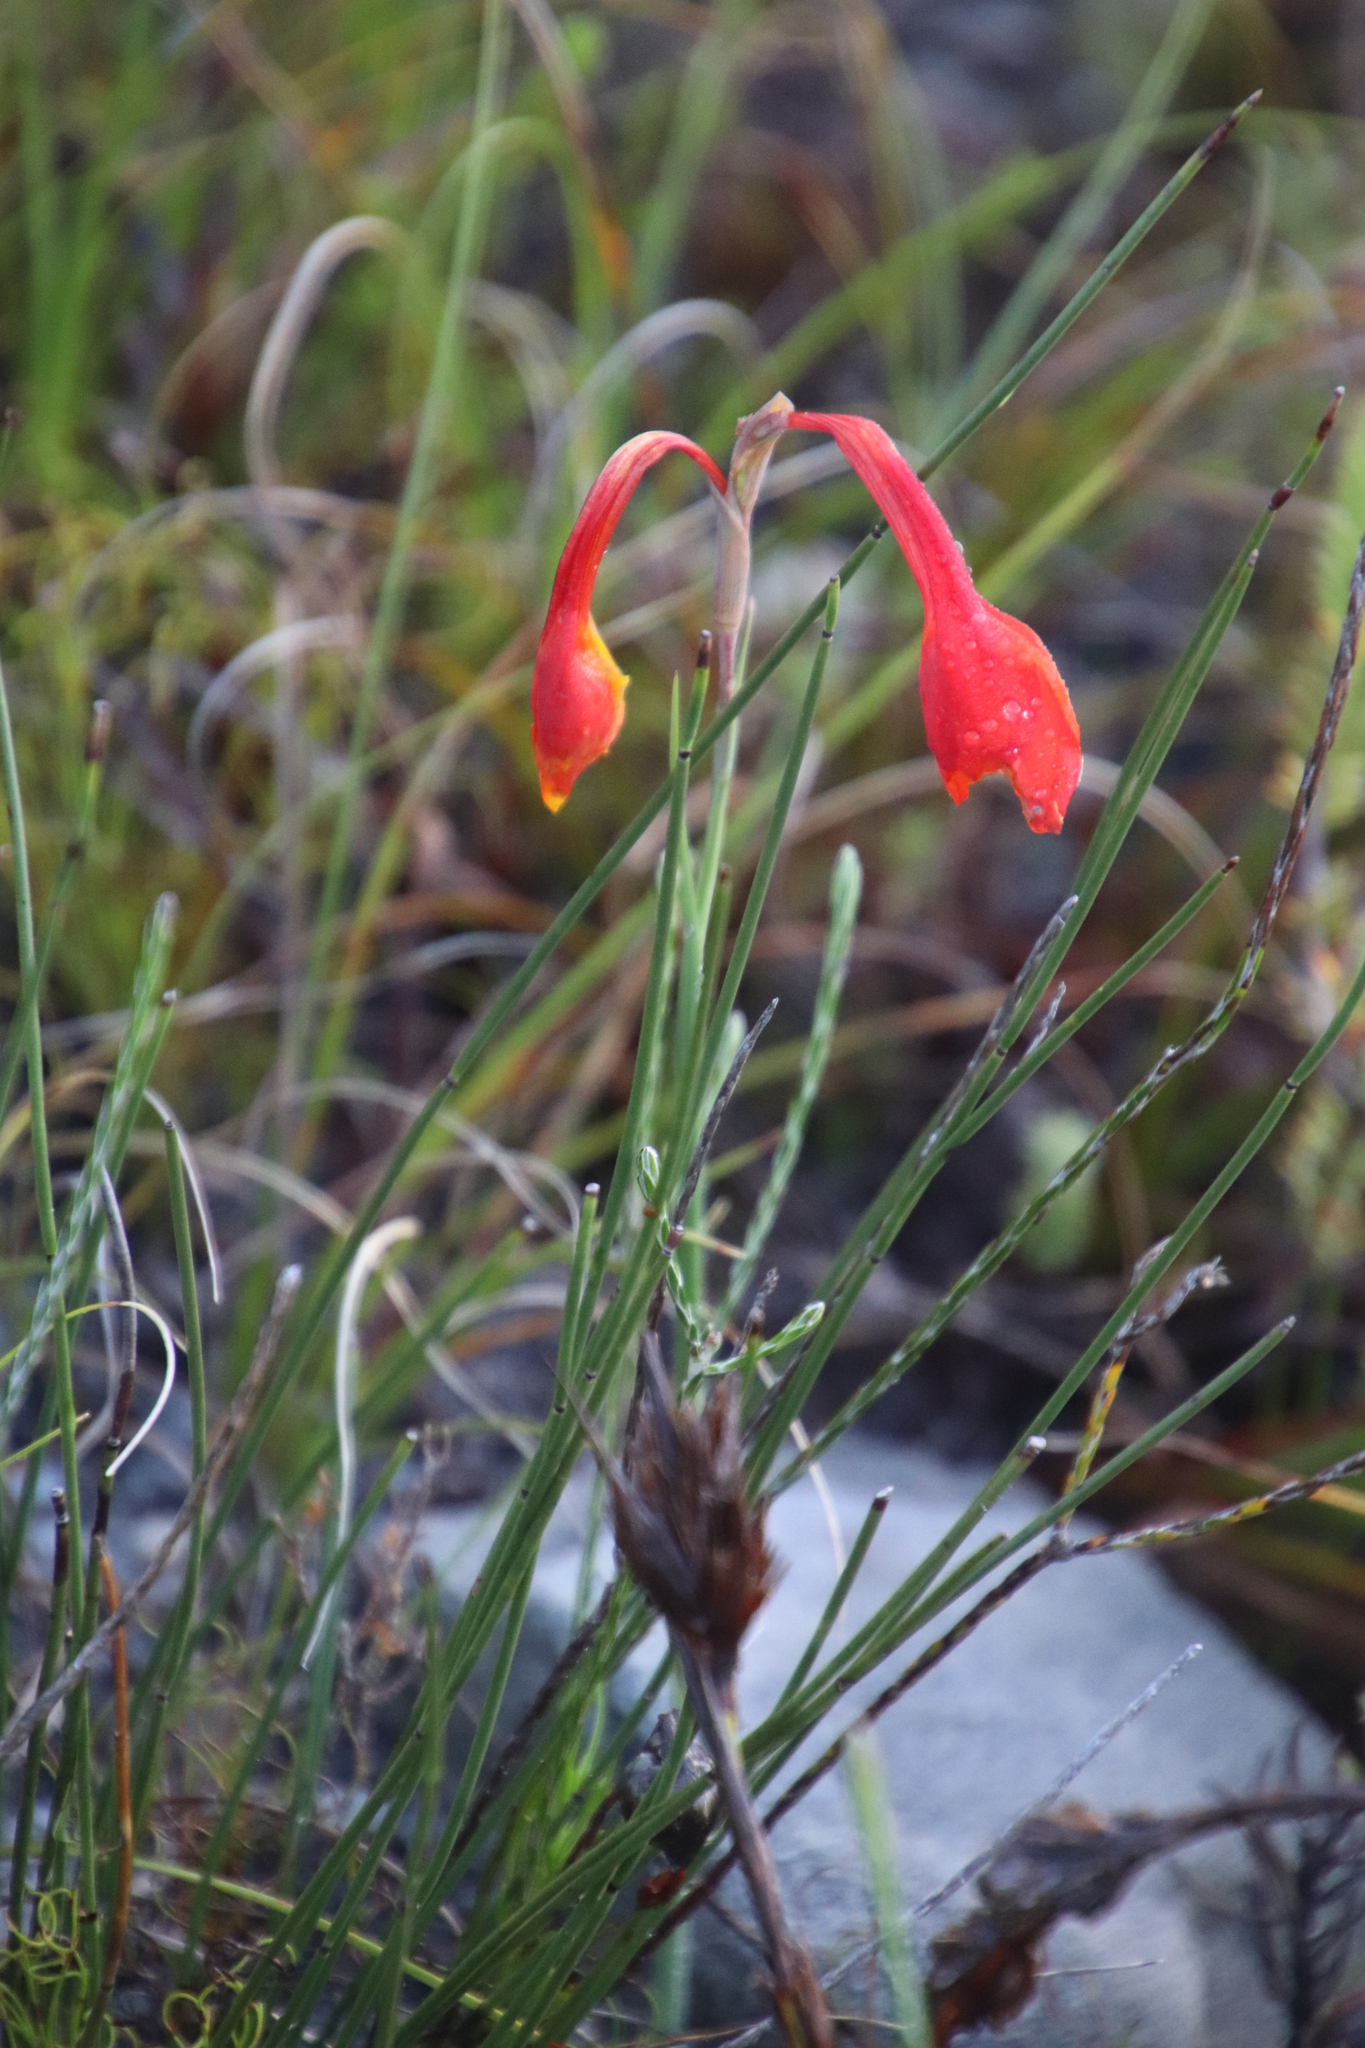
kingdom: Plantae
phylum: Tracheophyta
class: Liliopsida
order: Asparagales
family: Iridaceae
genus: Gladiolus
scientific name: Gladiolus merianellus
